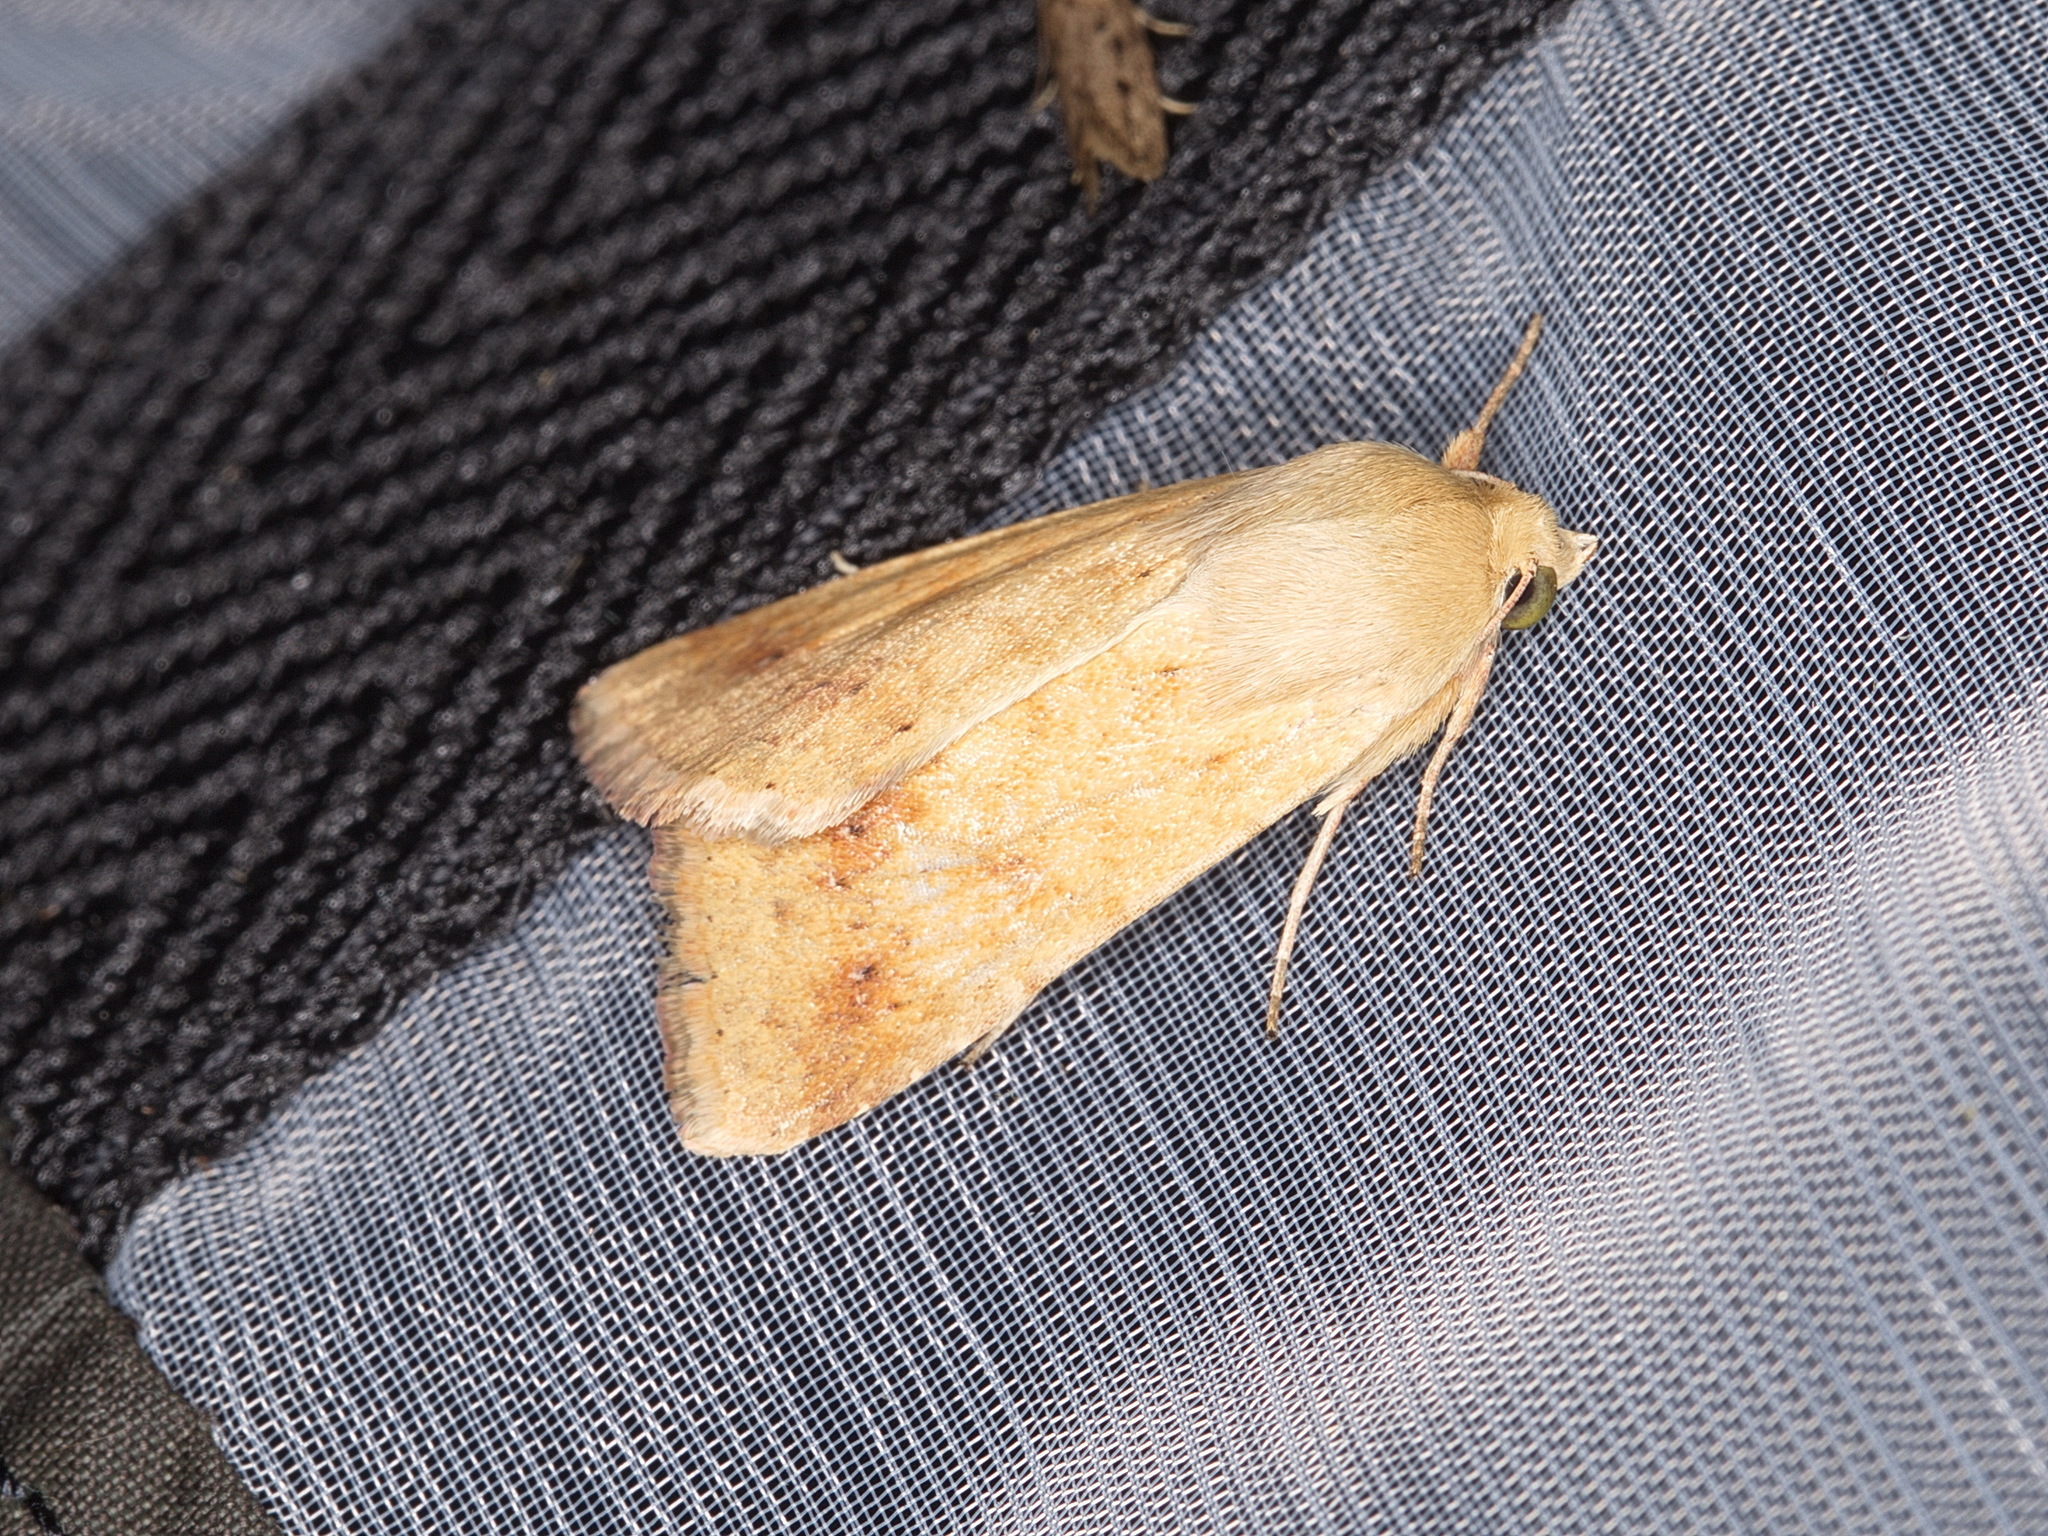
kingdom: Animalia
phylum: Arthropoda
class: Insecta
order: Lepidoptera
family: Noctuidae
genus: Helicoverpa
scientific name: Helicoverpa punctigera
